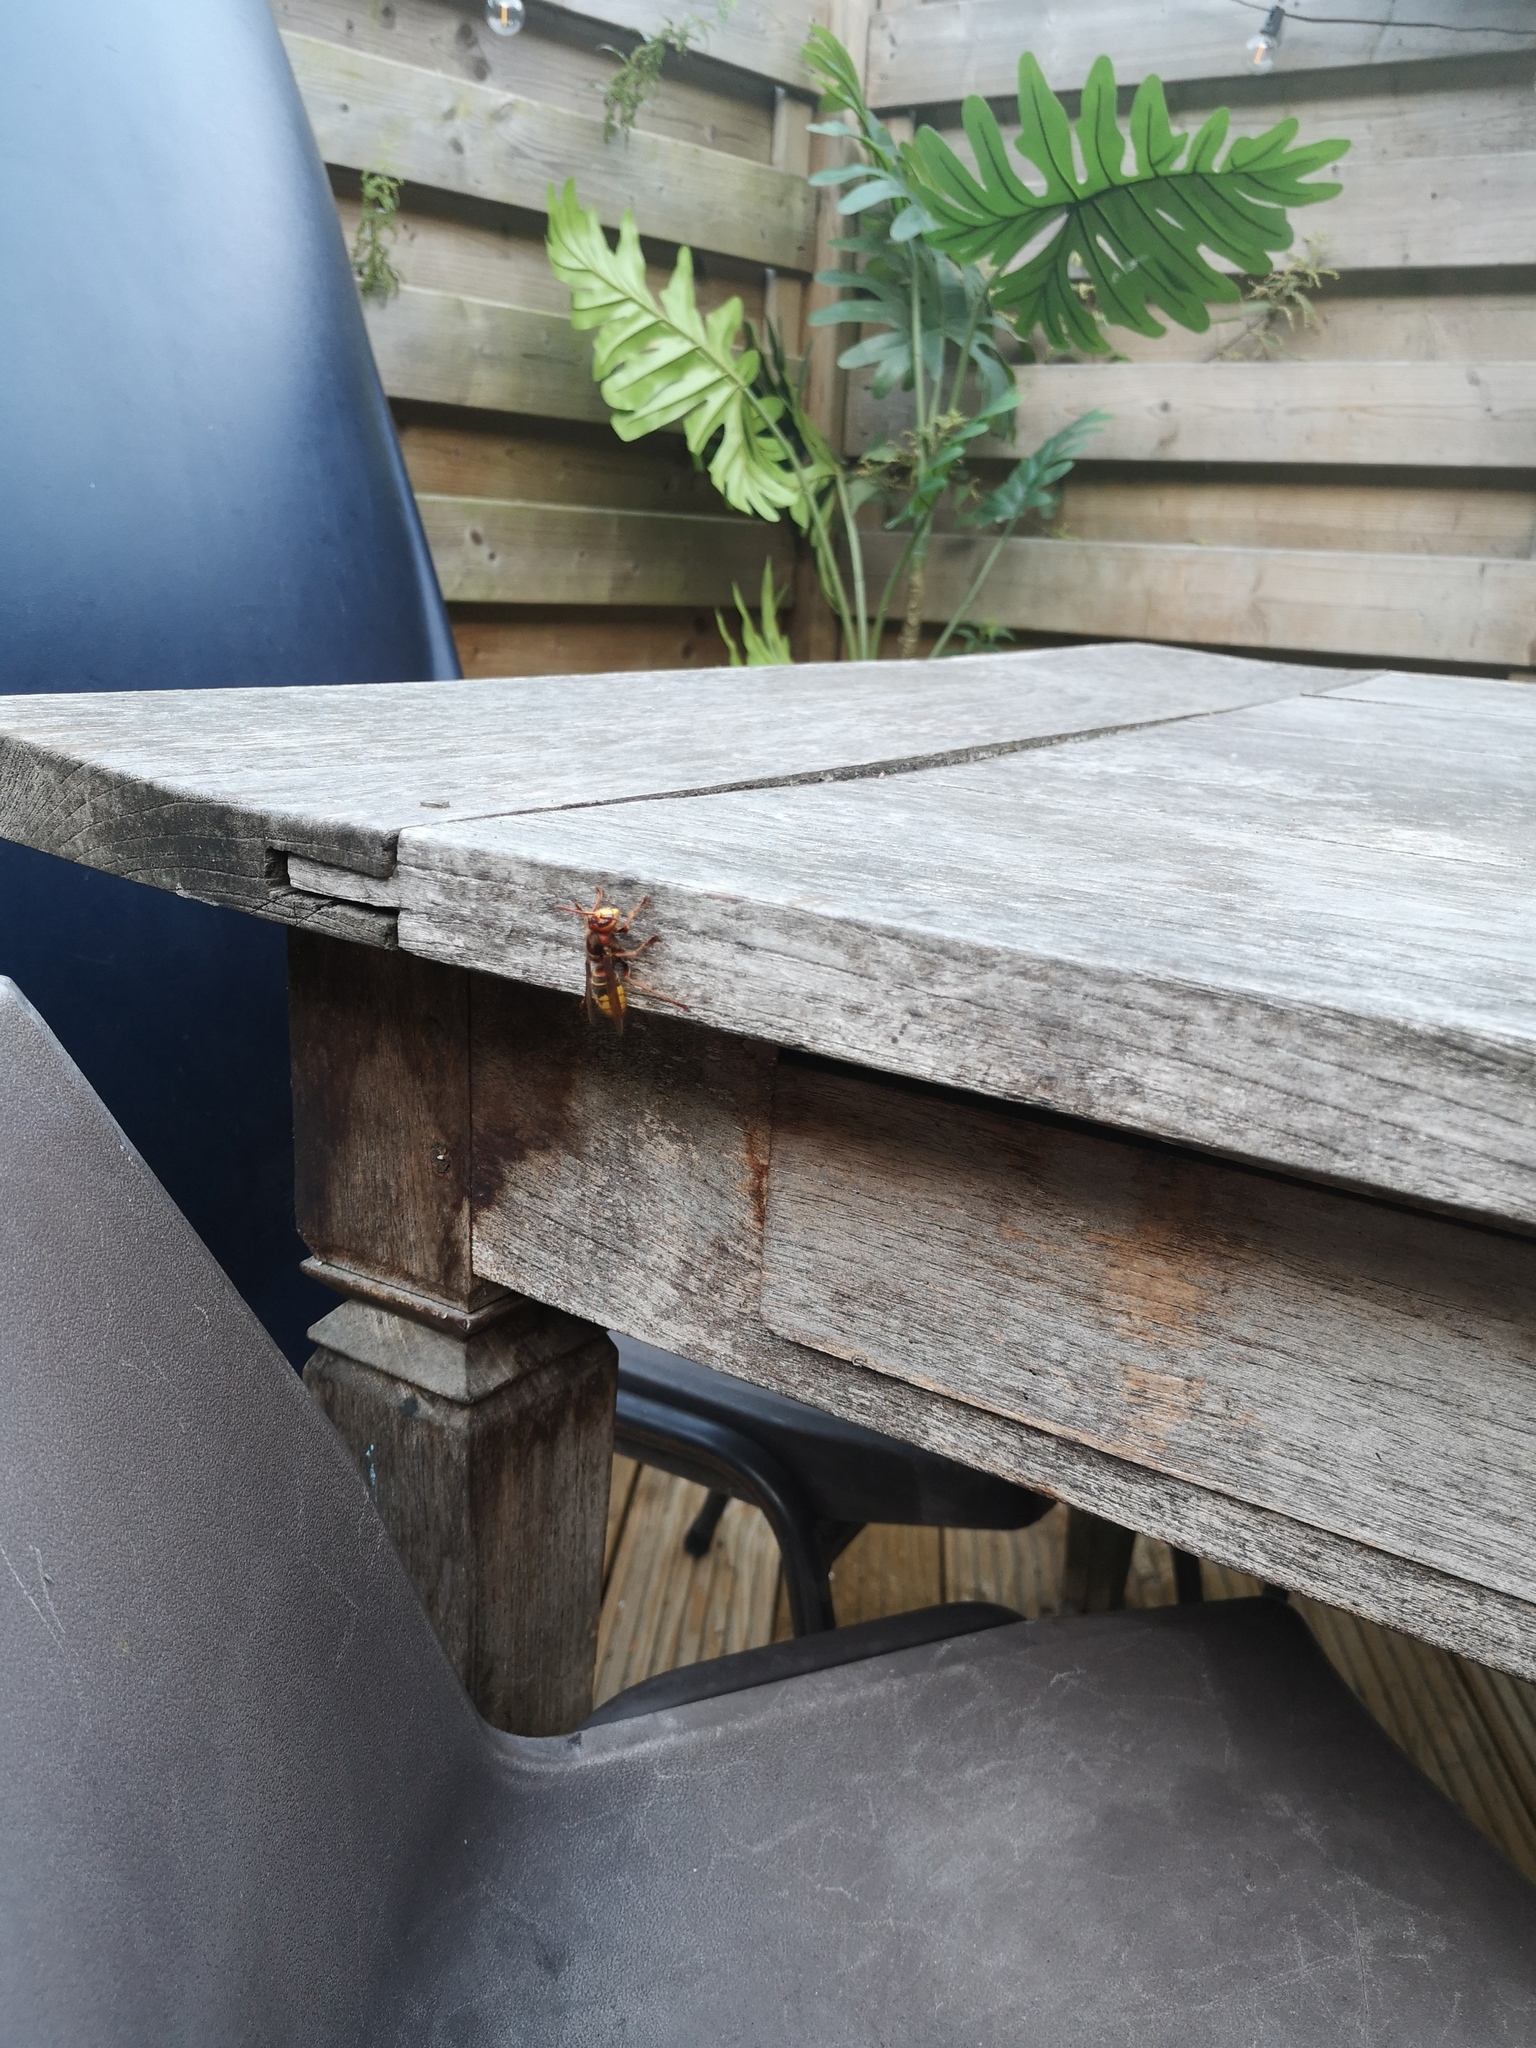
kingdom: Animalia
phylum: Arthropoda
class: Insecta
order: Hymenoptera
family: Vespidae
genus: Vespa
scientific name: Vespa crabro
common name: Hornet
